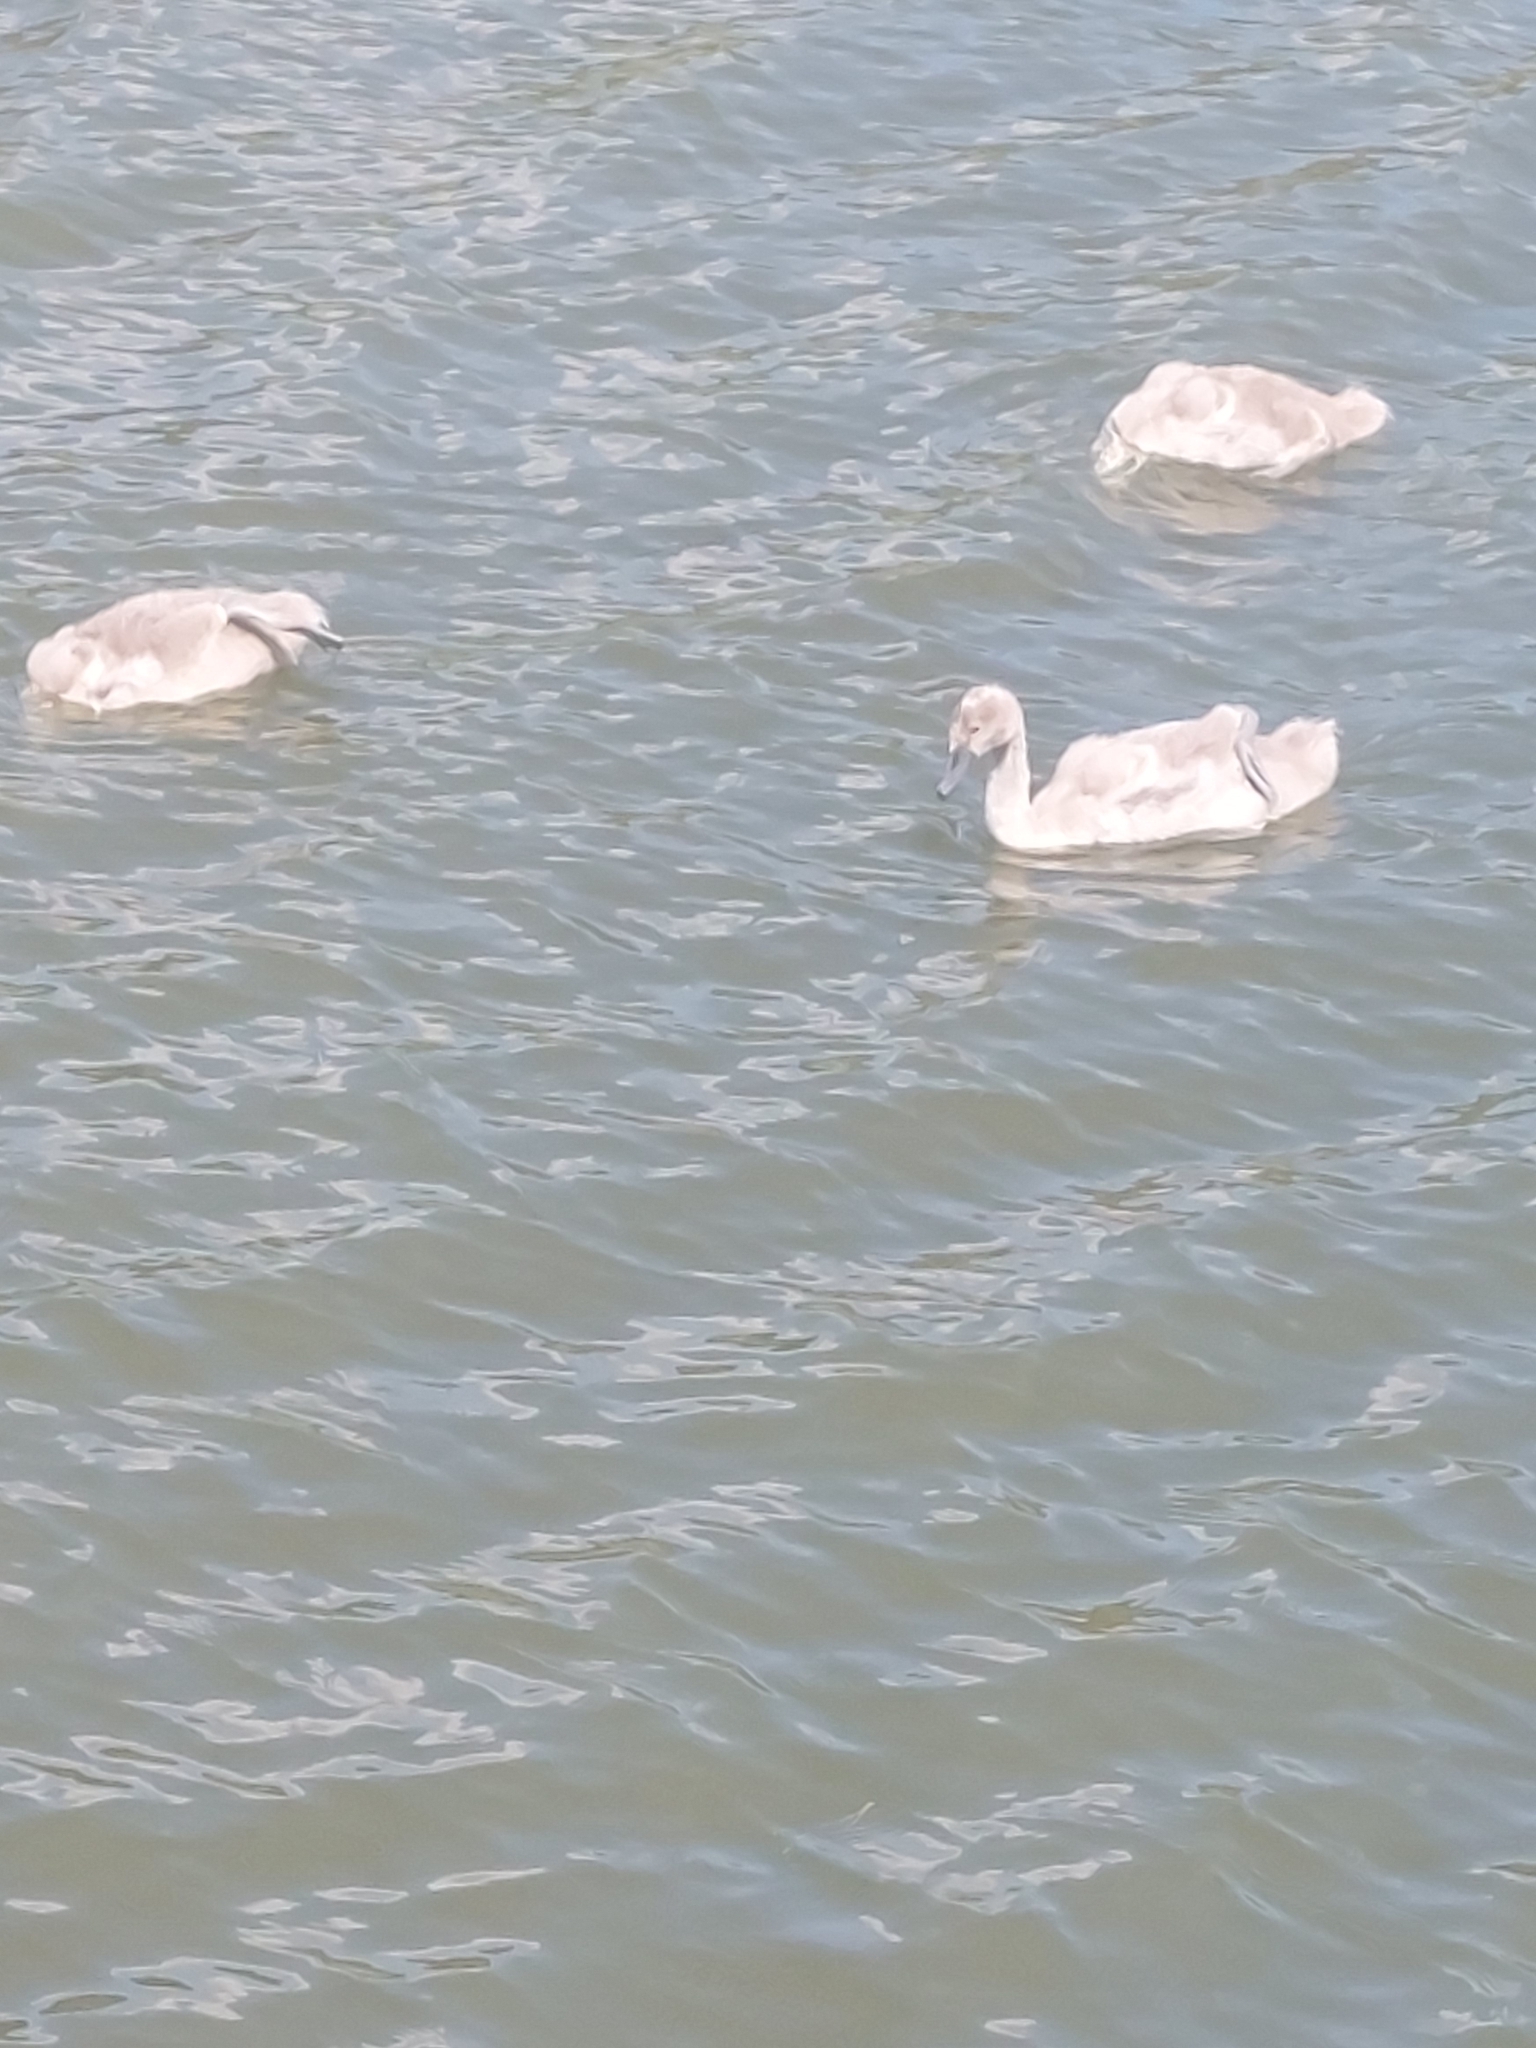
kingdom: Animalia
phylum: Chordata
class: Aves
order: Anseriformes
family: Anatidae
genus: Cygnus
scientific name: Cygnus olor
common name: Mute swan
